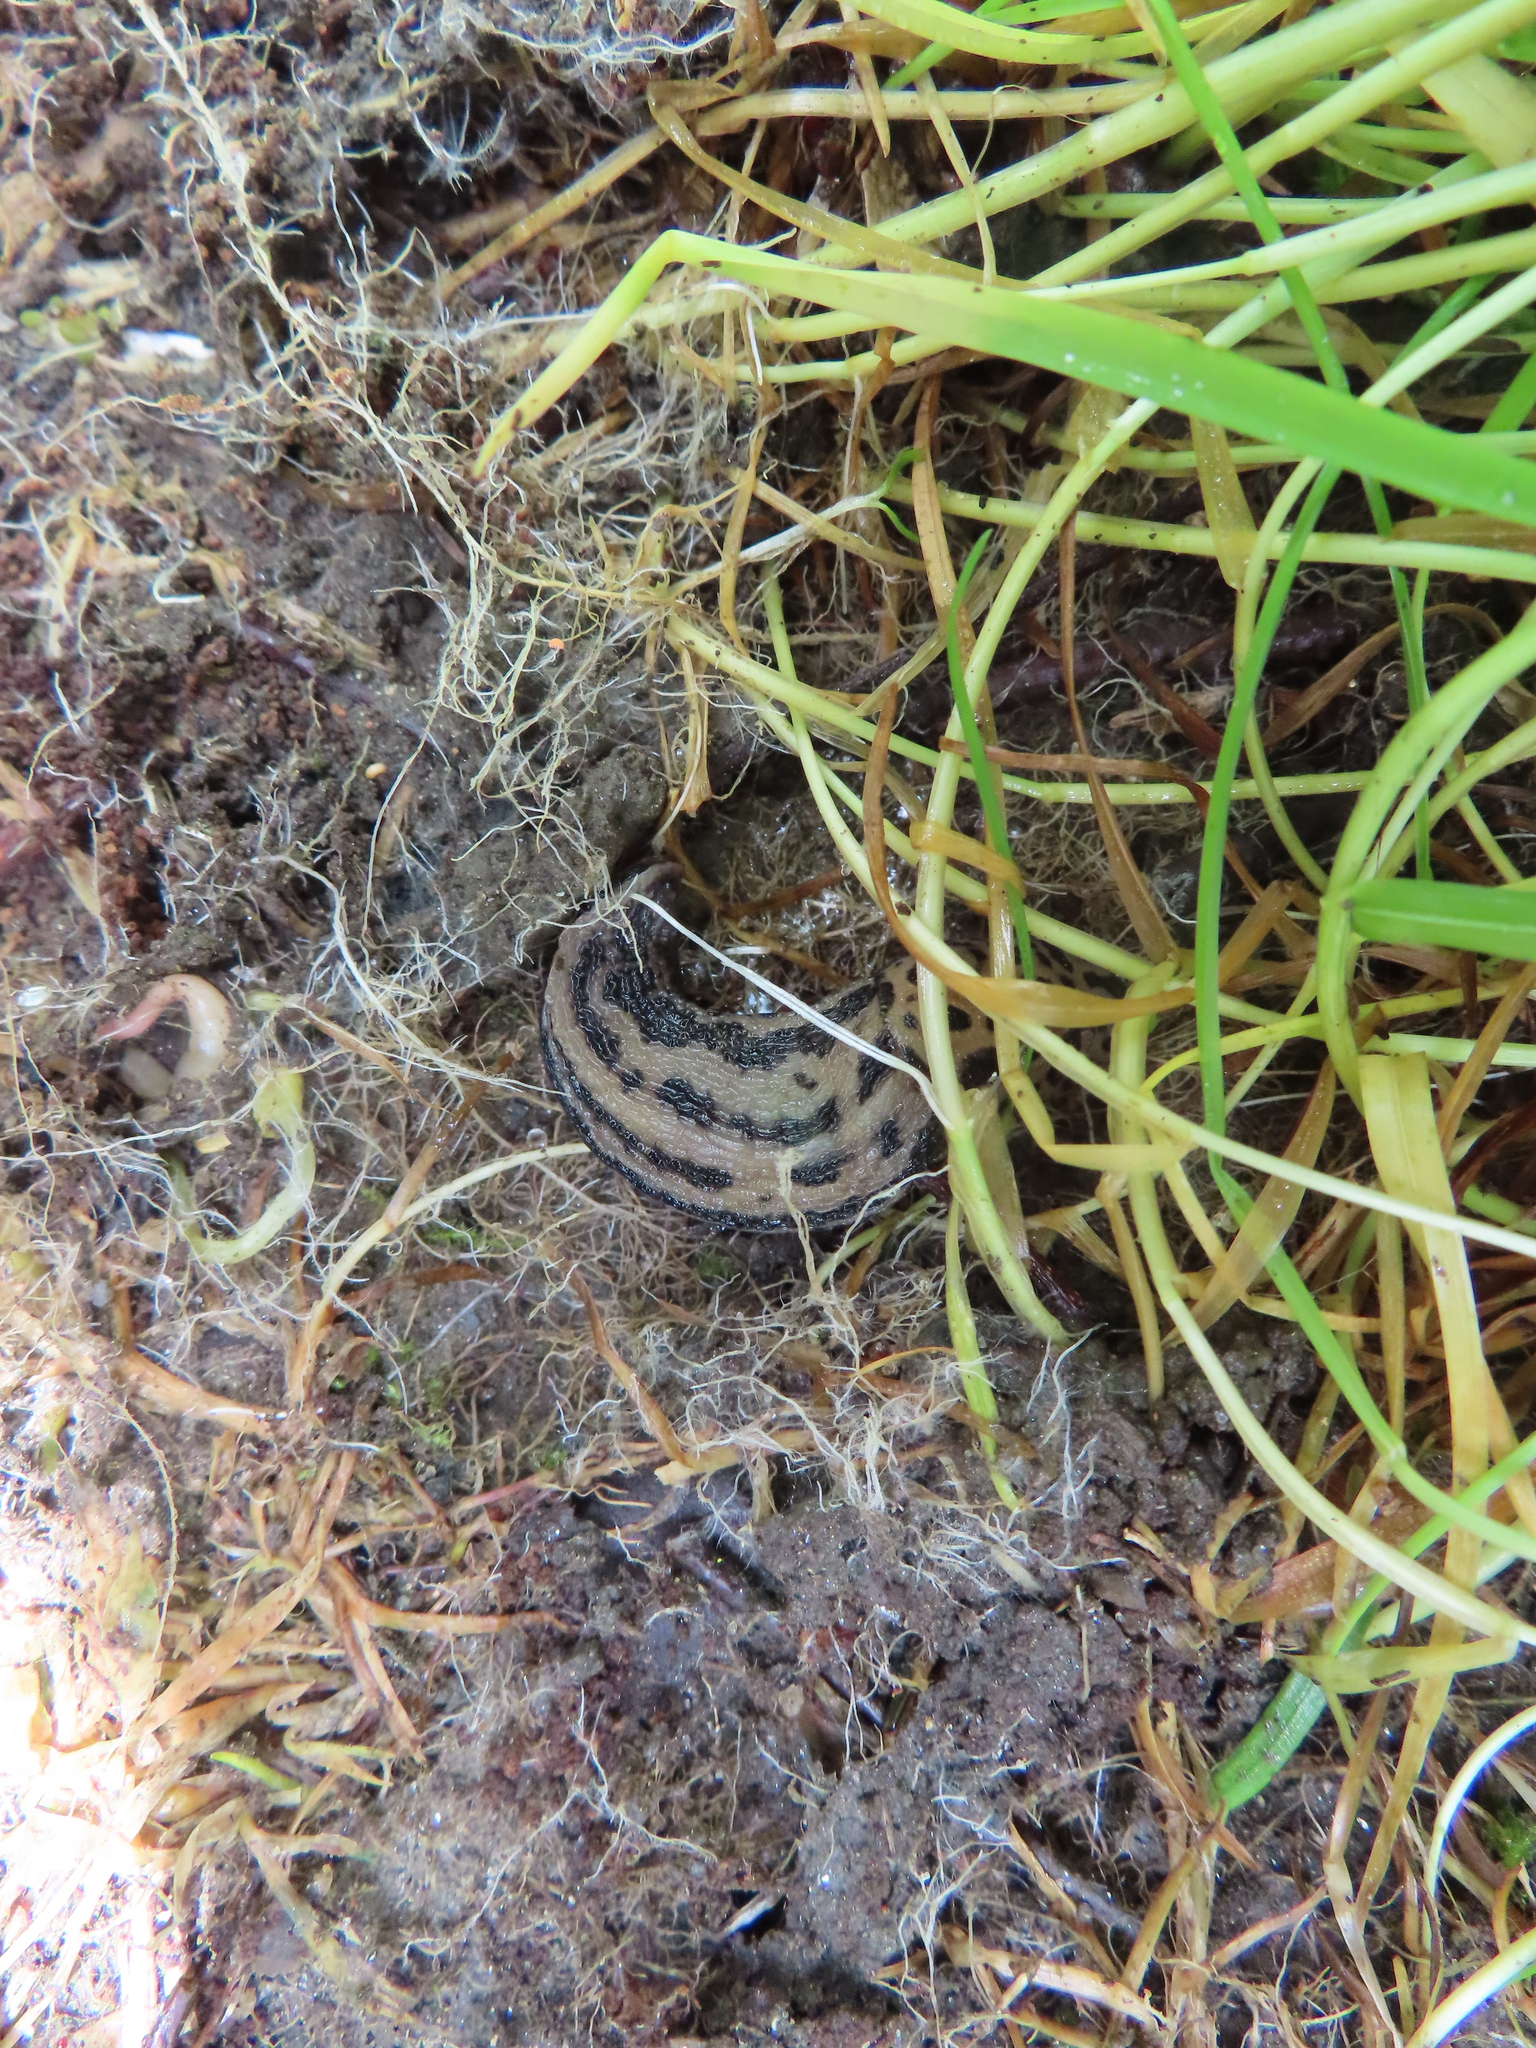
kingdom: Animalia
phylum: Mollusca
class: Gastropoda
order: Stylommatophora
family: Limacidae
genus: Limax
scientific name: Limax maximus
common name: Great grey slug
